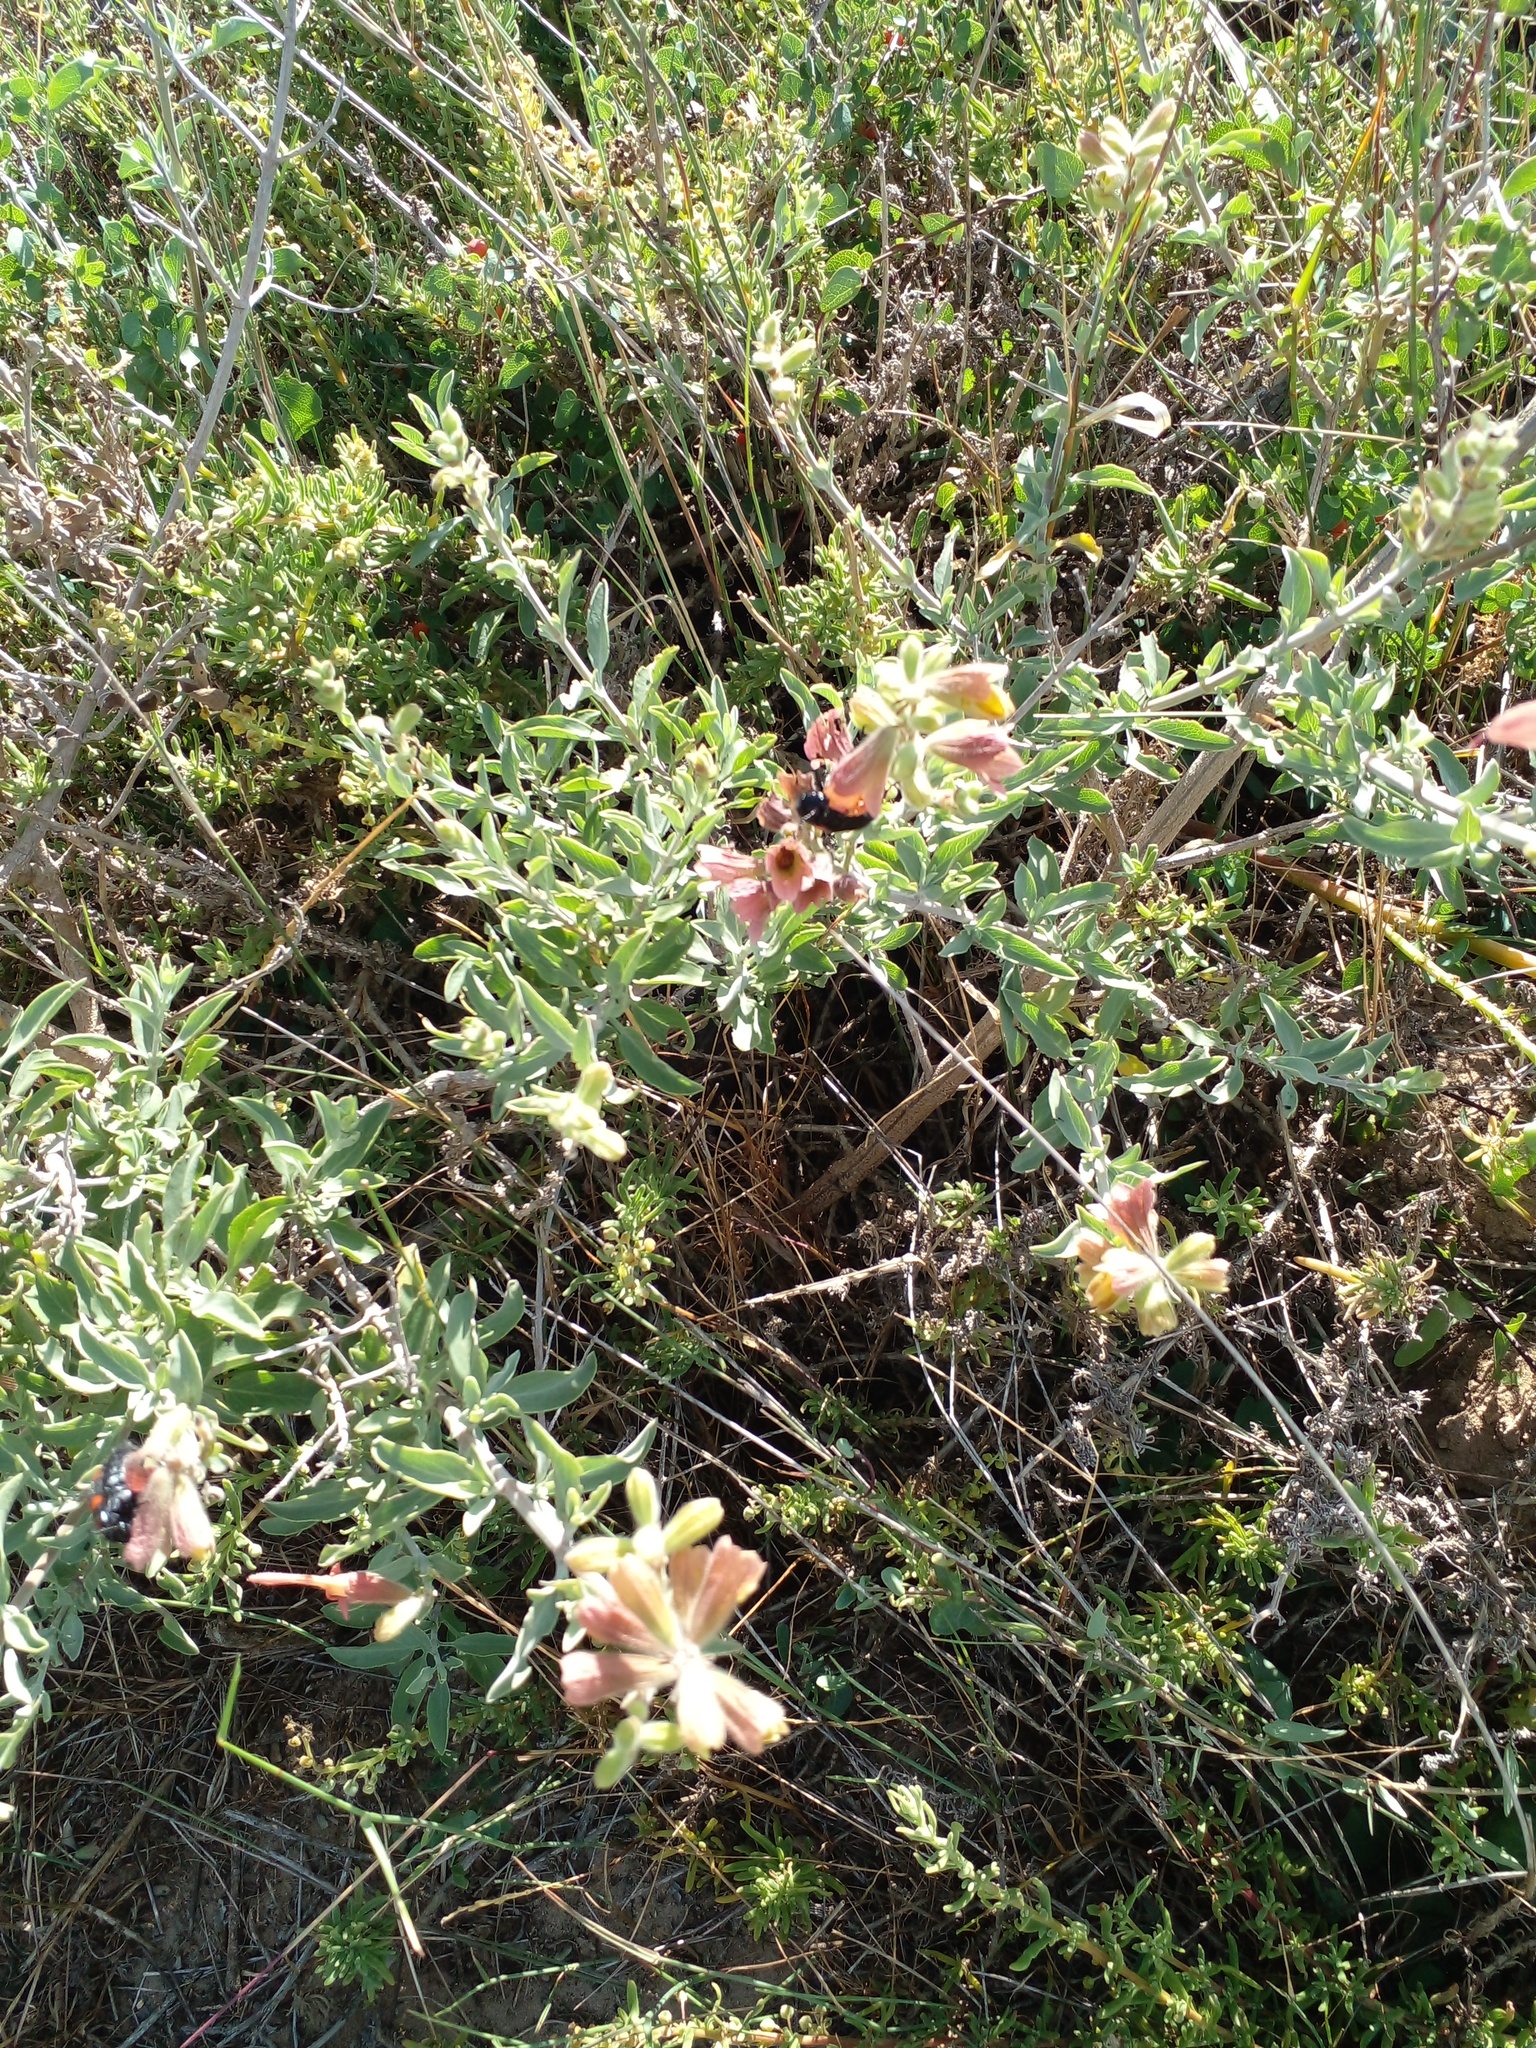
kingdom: Plantae
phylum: Tracheophyta
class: Magnoliopsida
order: Lamiales
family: Lamiaceae
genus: Salvia
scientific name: Salvia lanceolata
